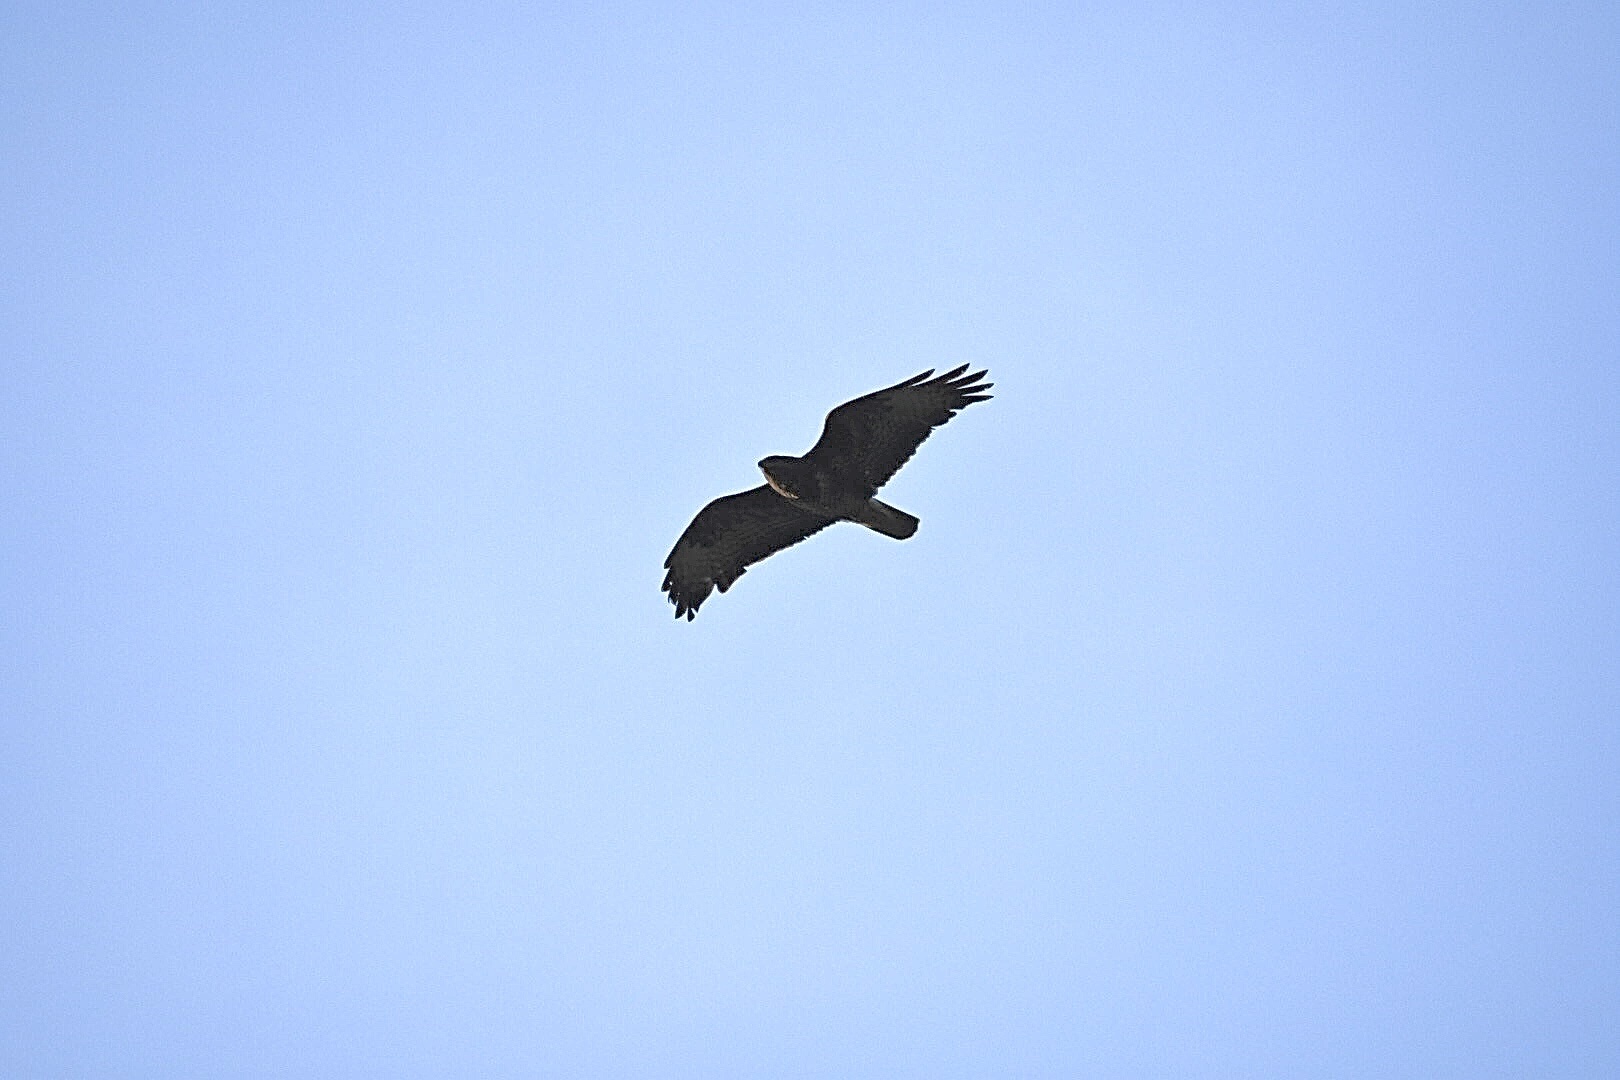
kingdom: Animalia
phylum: Chordata
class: Aves
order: Accipitriformes
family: Accipitridae
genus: Buteo
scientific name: Buteo buteo
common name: Common buzzard
